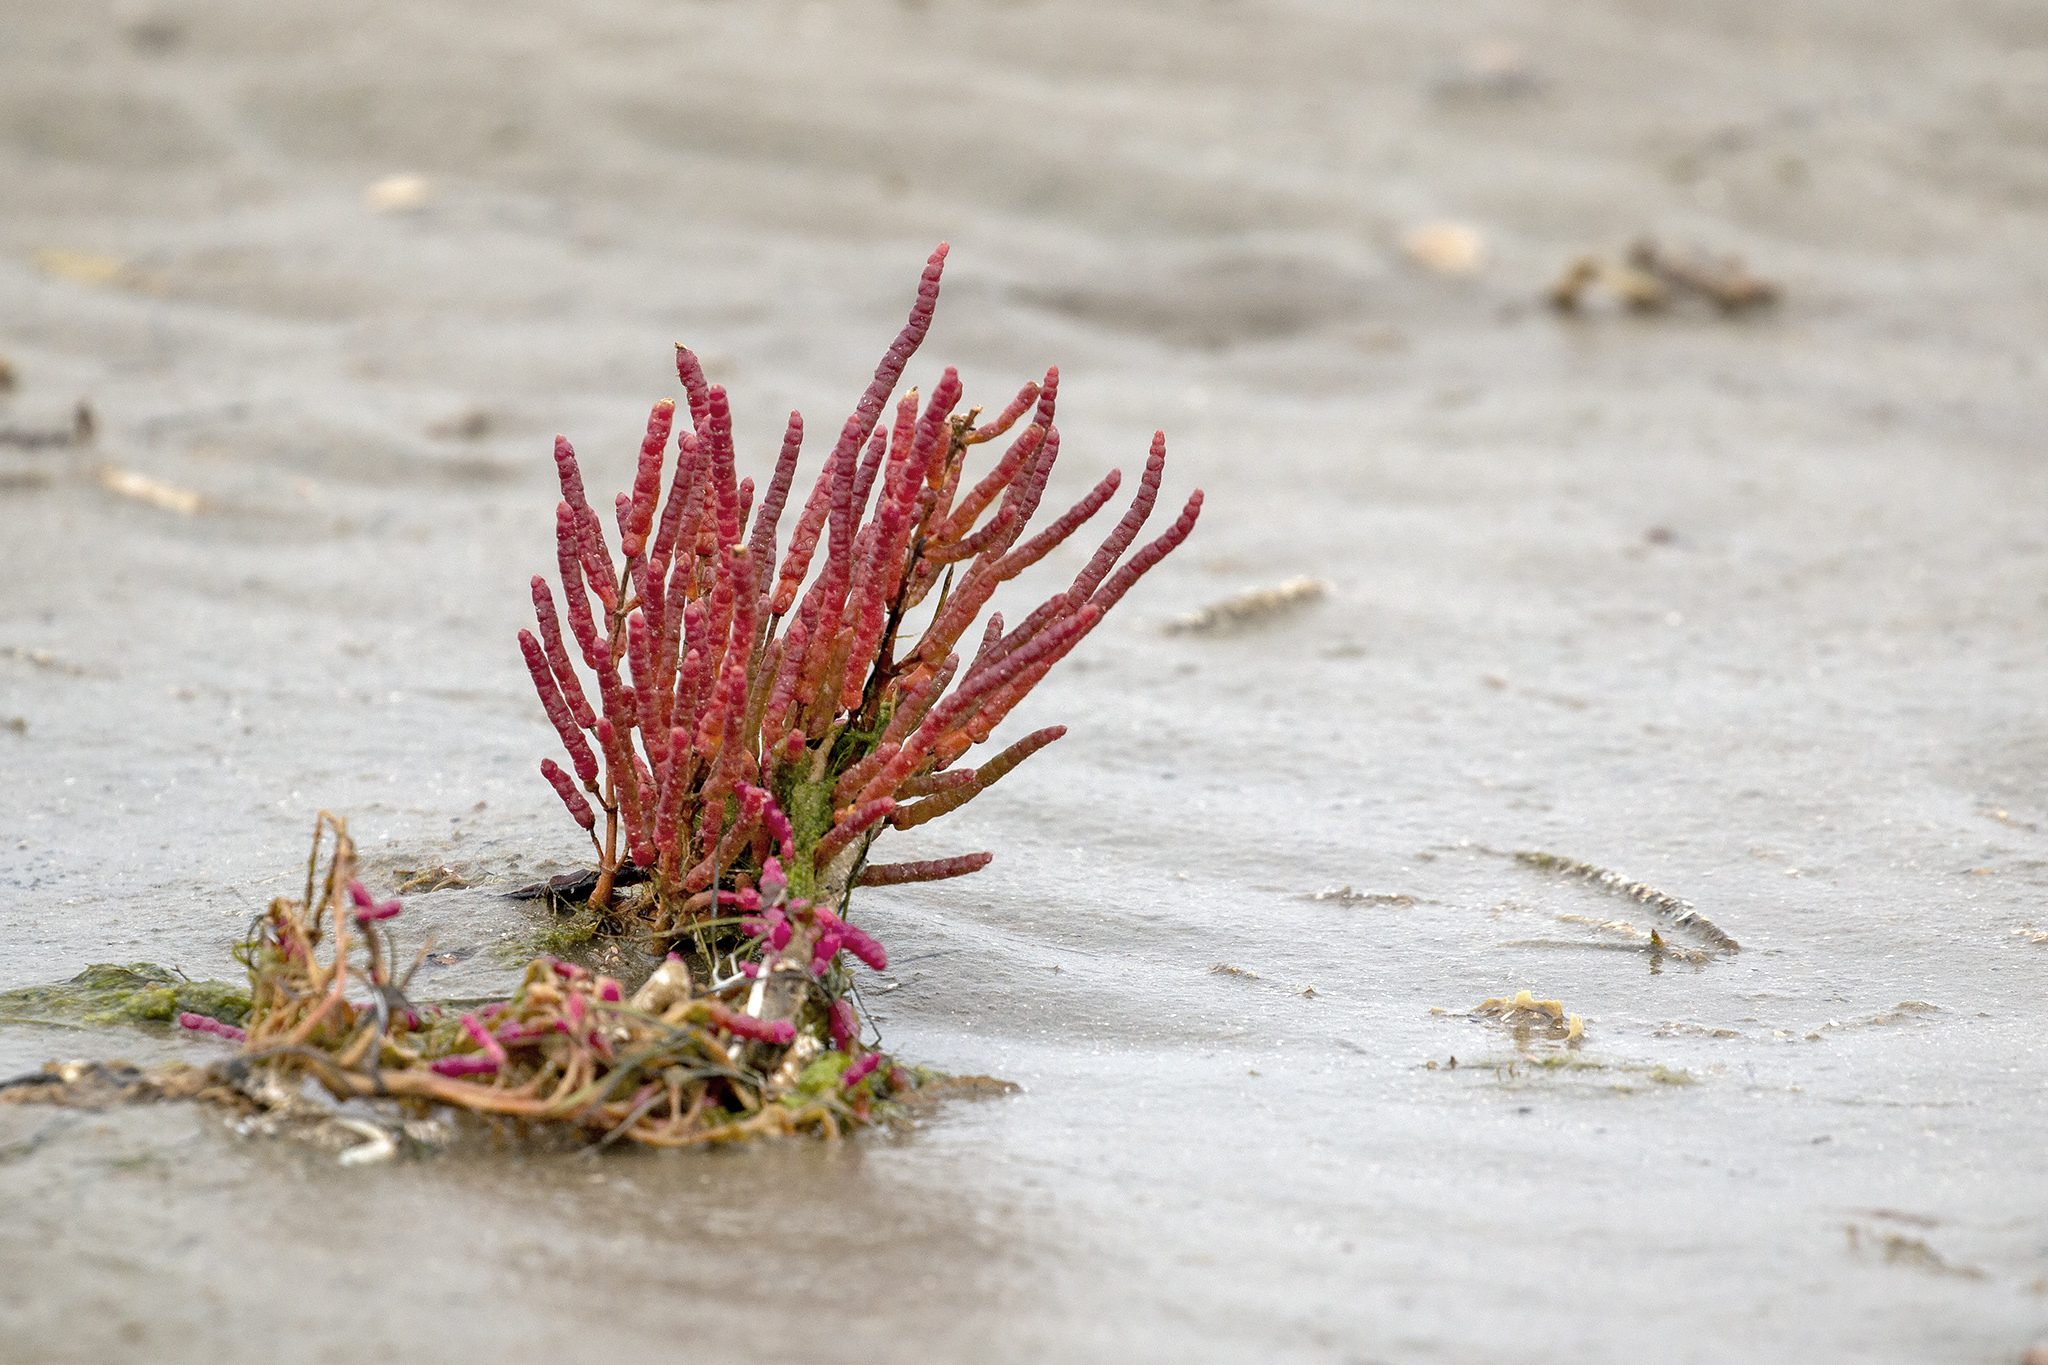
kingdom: Plantae
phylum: Tracheophyta
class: Magnoliopsida
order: Caryophyllales
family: Amaranthaceae
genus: Salicornia
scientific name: Salicornia europaea
